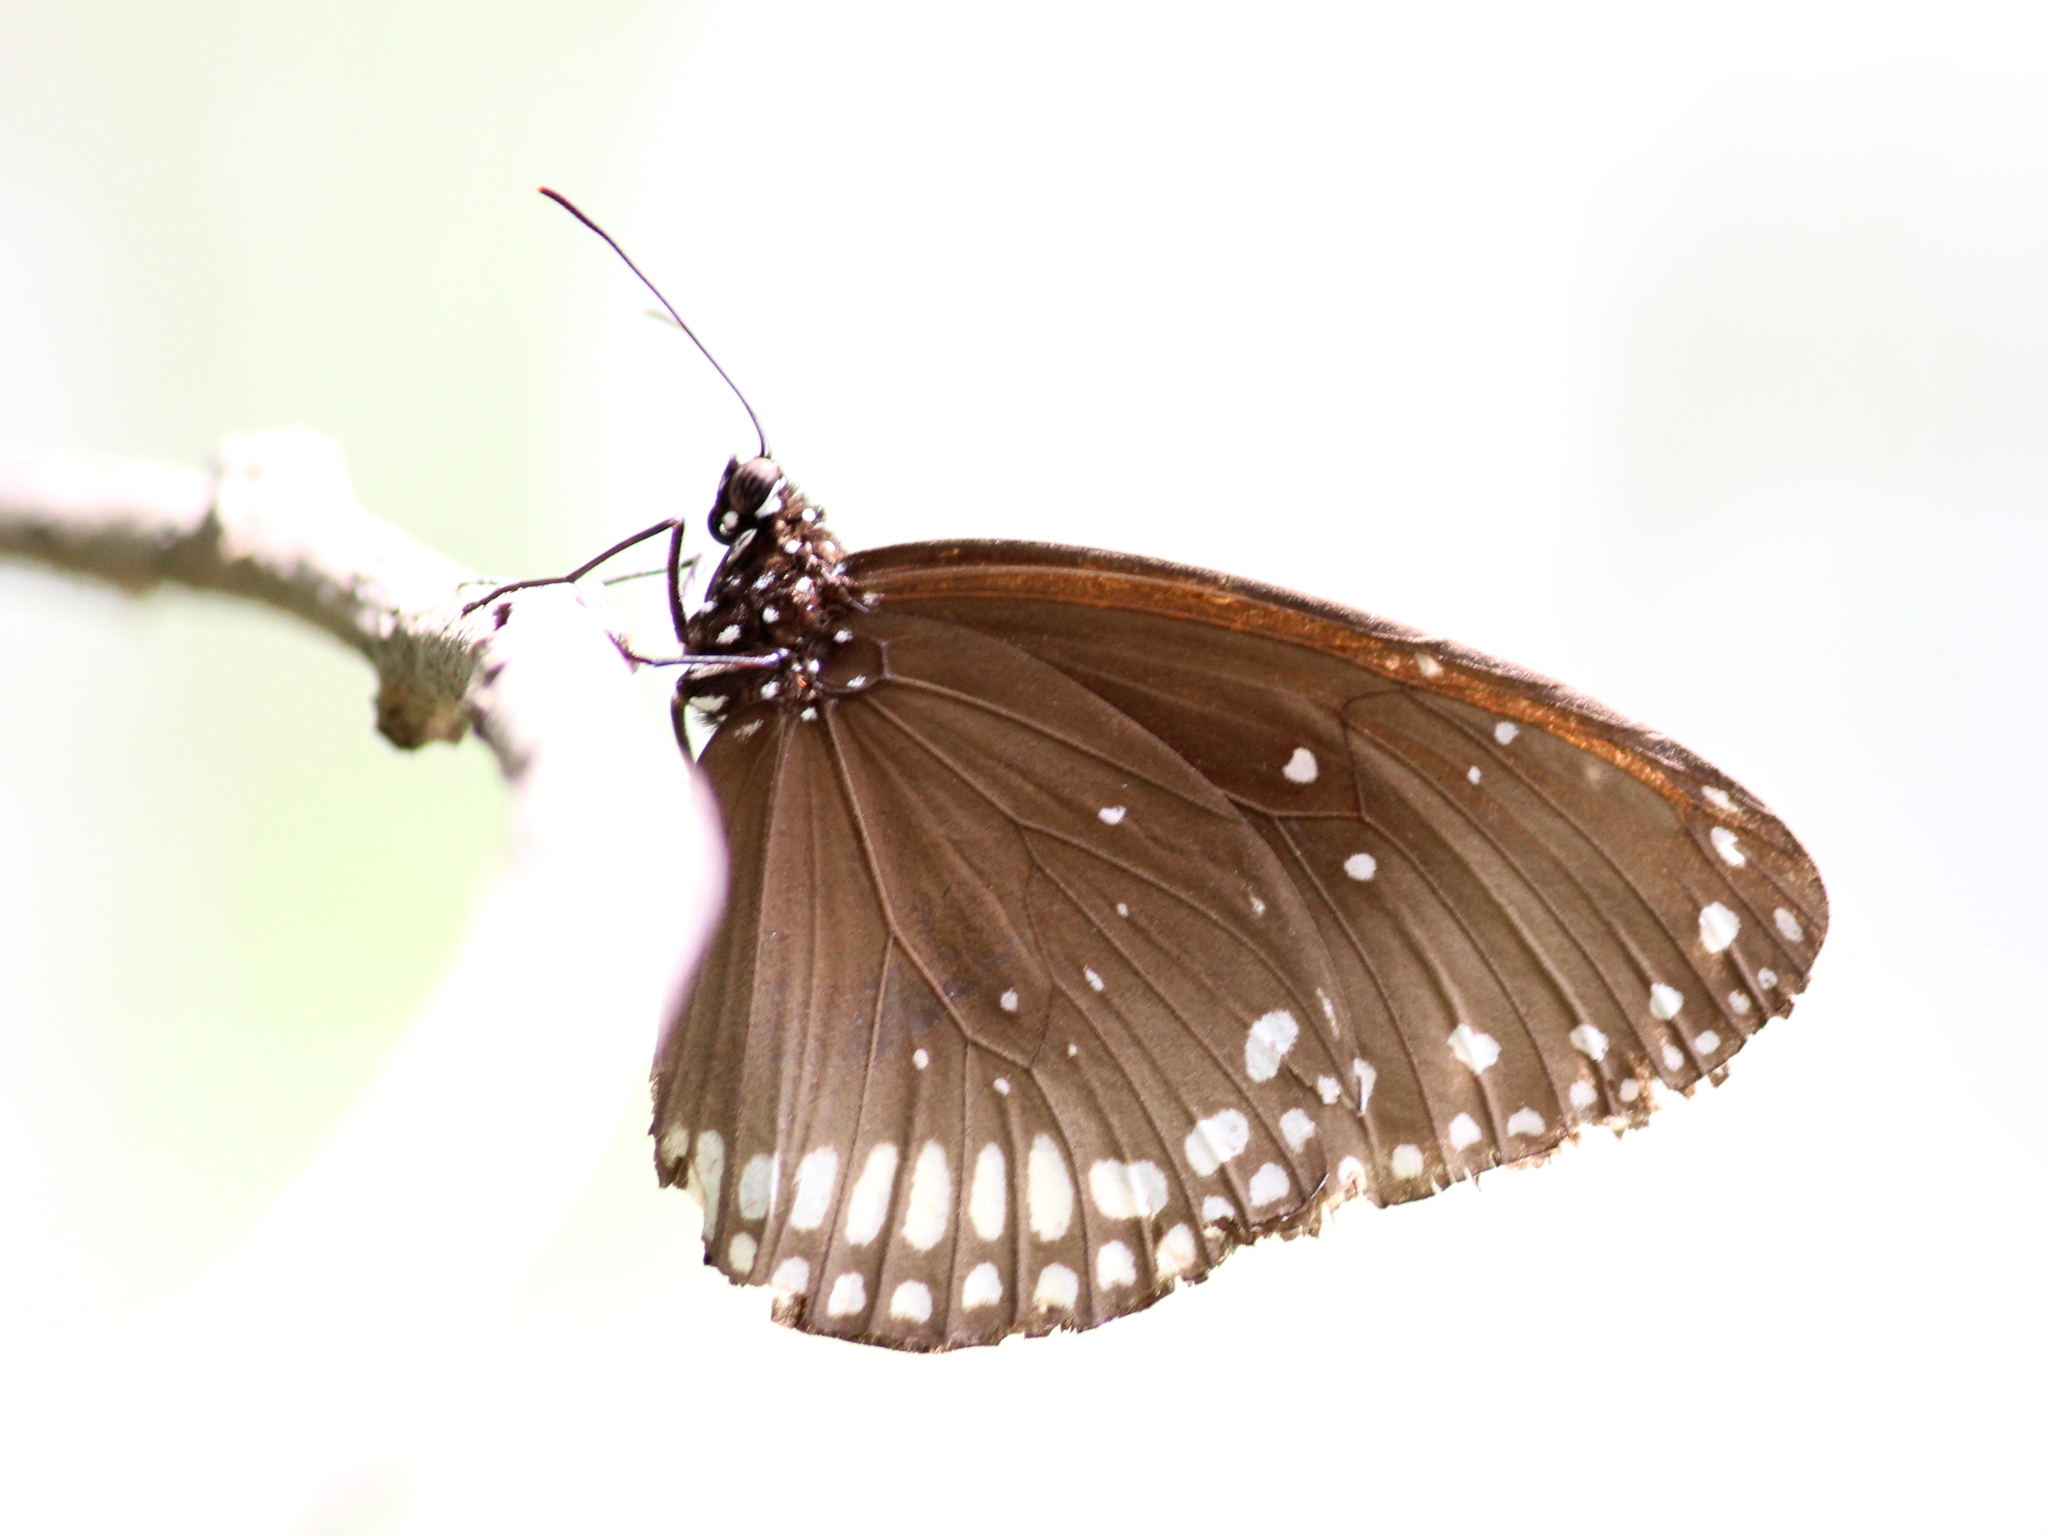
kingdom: Animalia
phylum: Arthropoda
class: Insecta
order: Lepidoptera
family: Nymphalidae
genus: Euploea
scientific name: Euploea sylvester
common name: Double-branded crow butterfly
